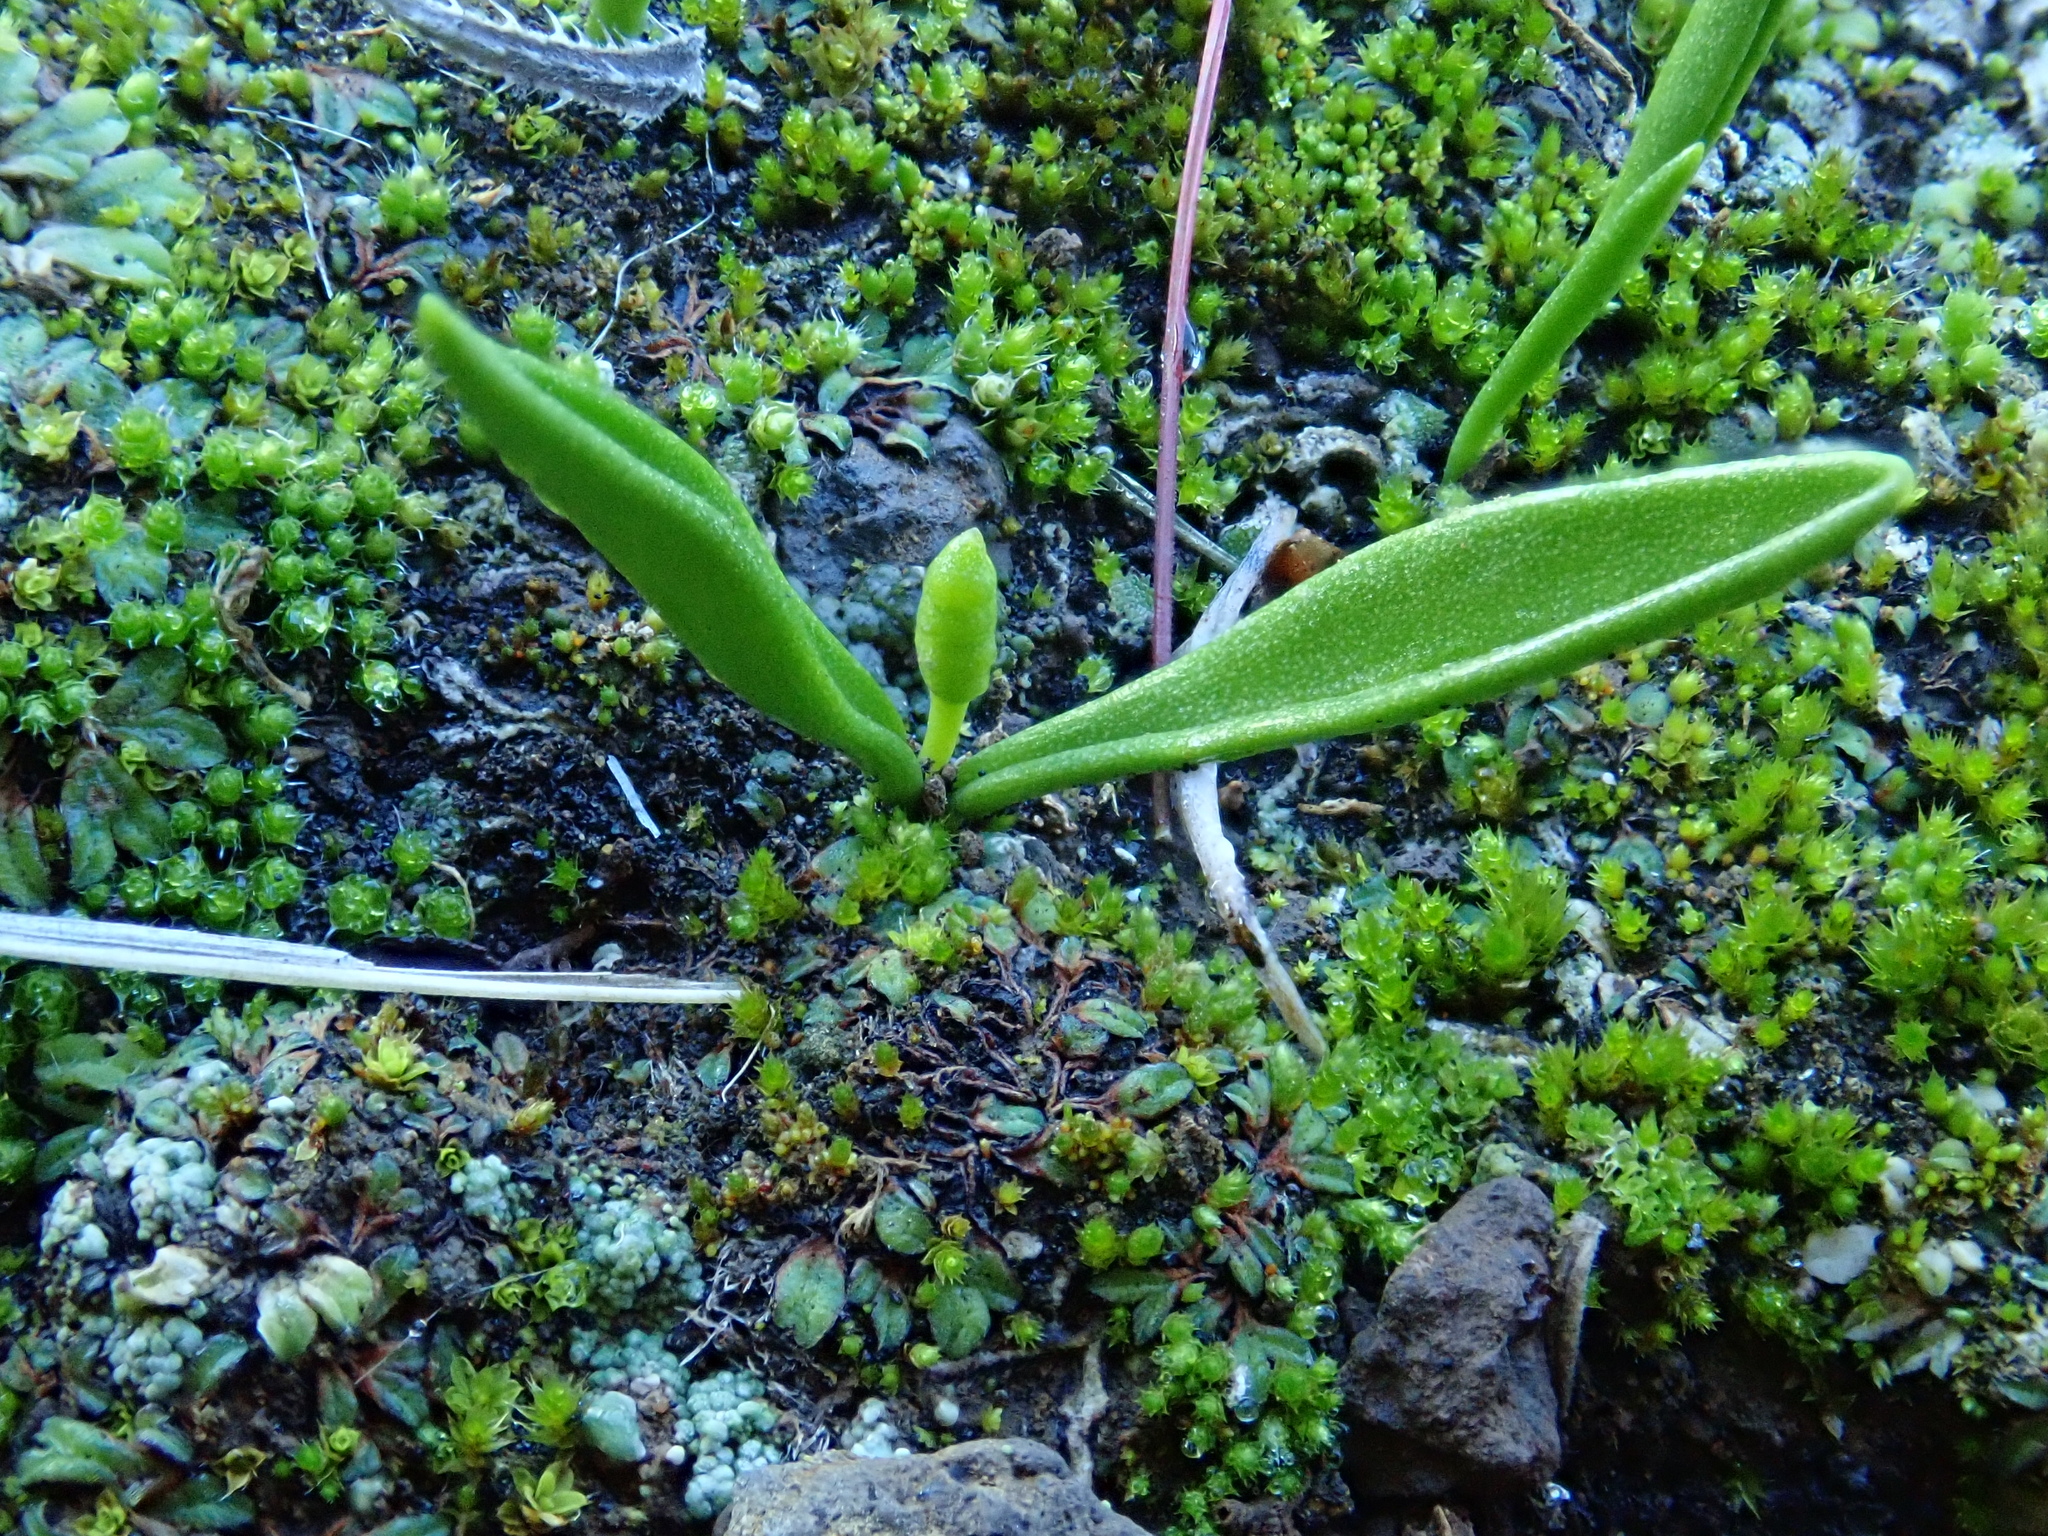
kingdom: Plantae
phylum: Tracheophyta
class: Polypodiopsida
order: Ophioglossales
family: Ophioglossaceae
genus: Ophioglossum
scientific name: Ophioglossum polyphyllum
